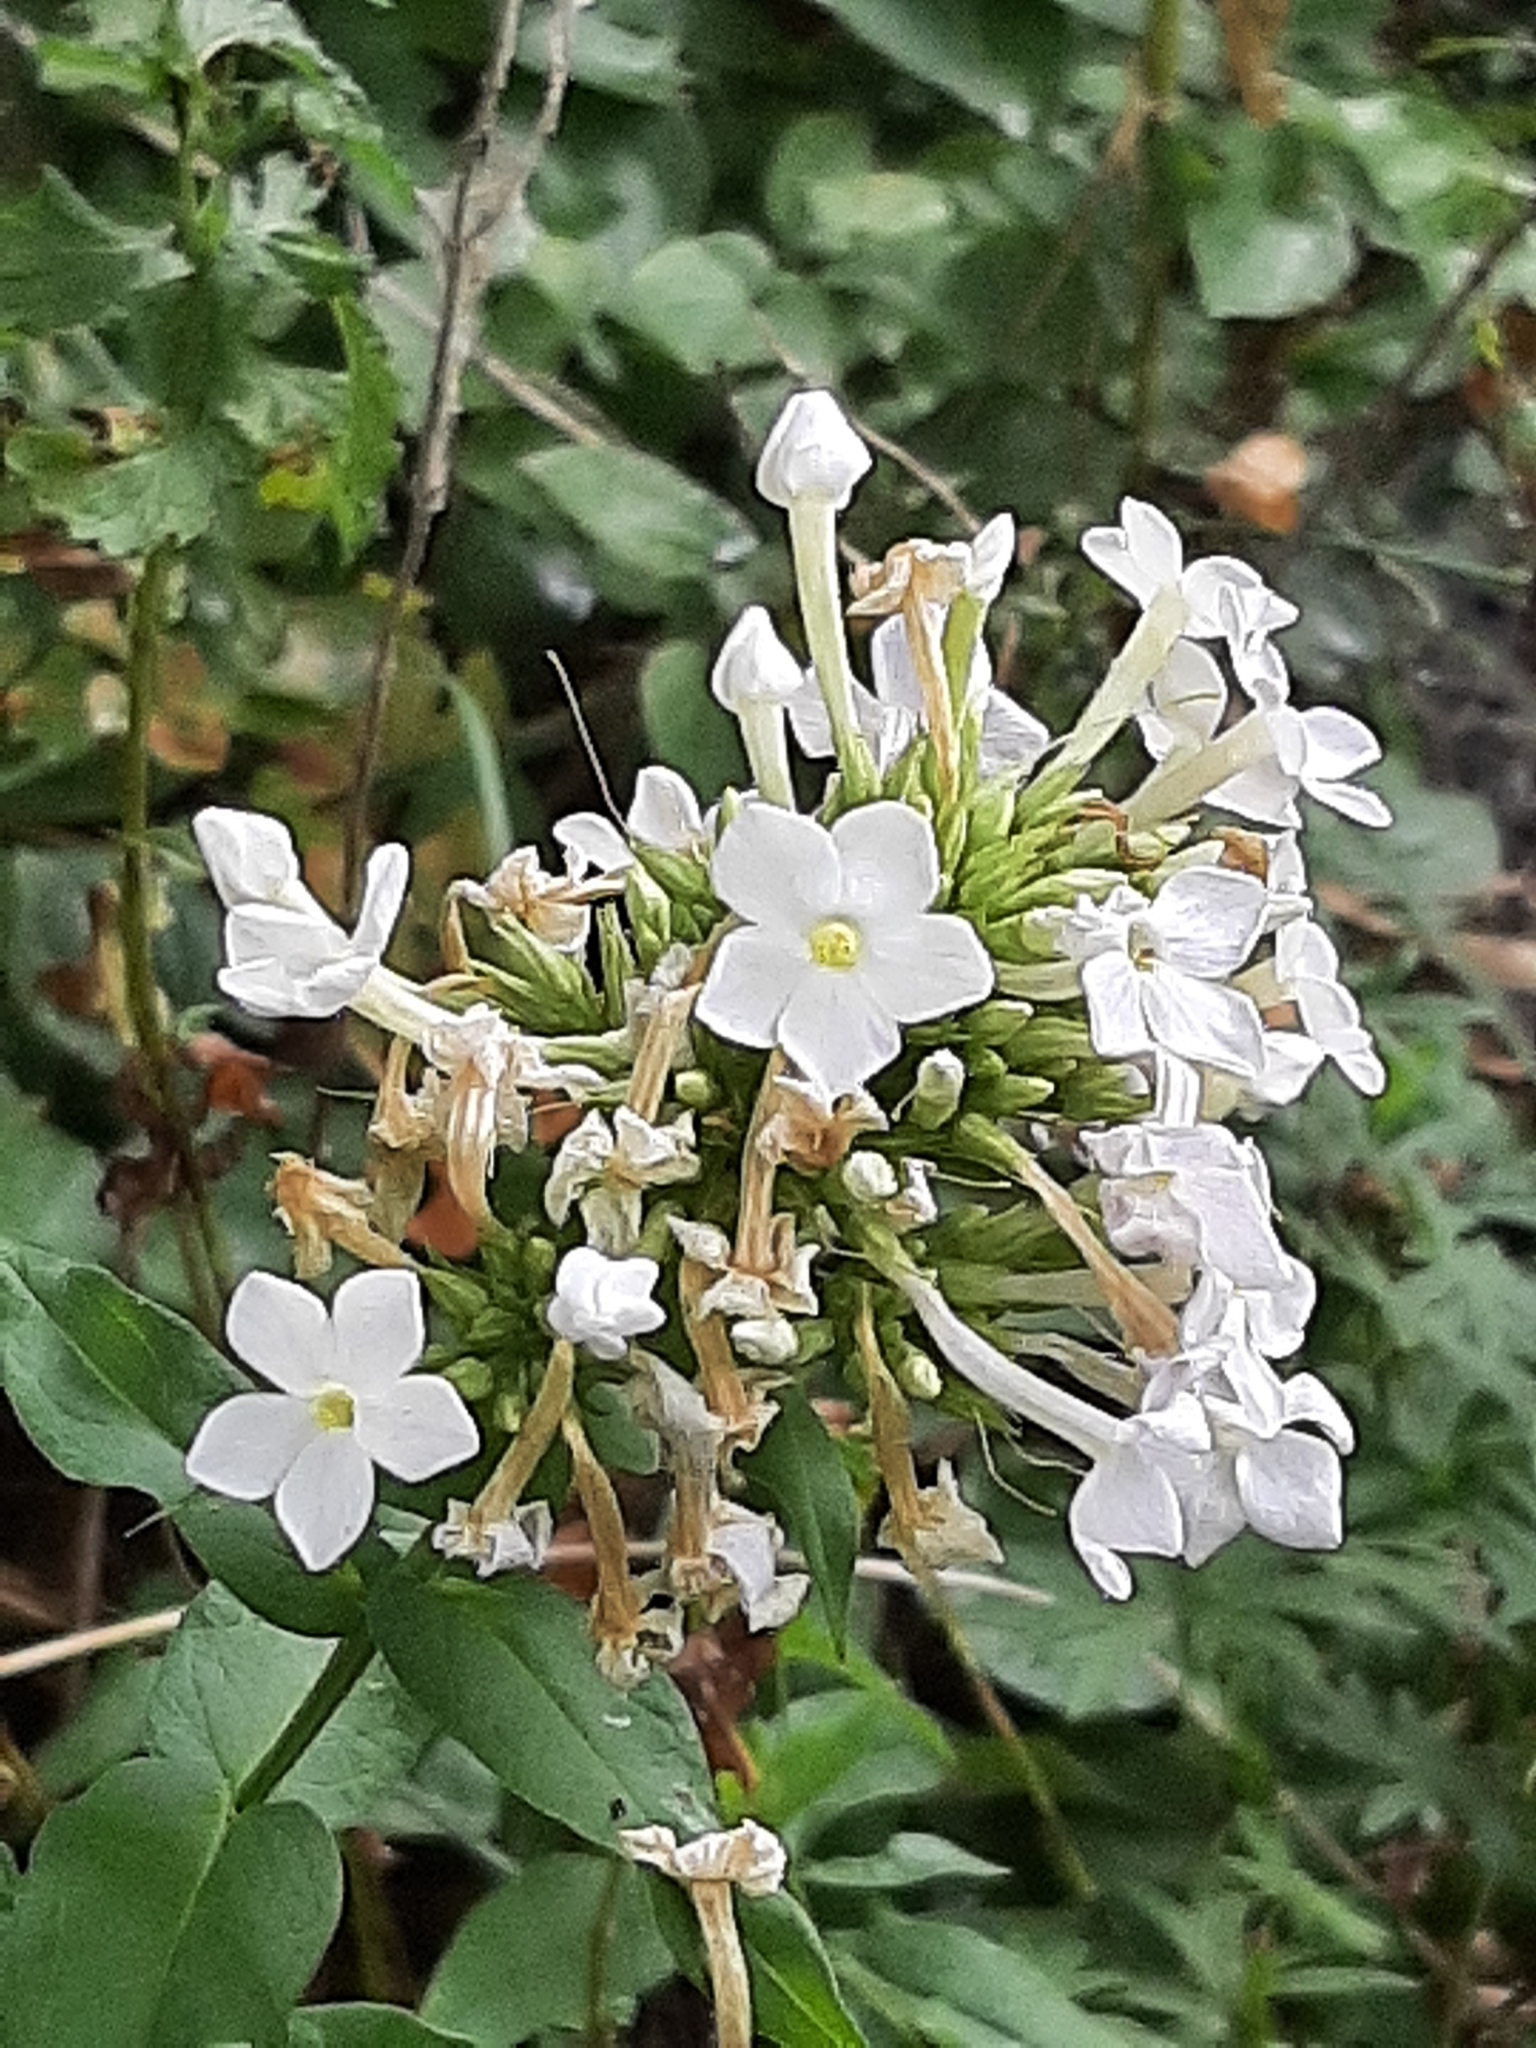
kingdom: Plantae
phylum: Tracheophyta
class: Magnoliopsida
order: Ericales
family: Polemoniaceae
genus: Phlox
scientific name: Phlox paniculata
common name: Fall phlox
